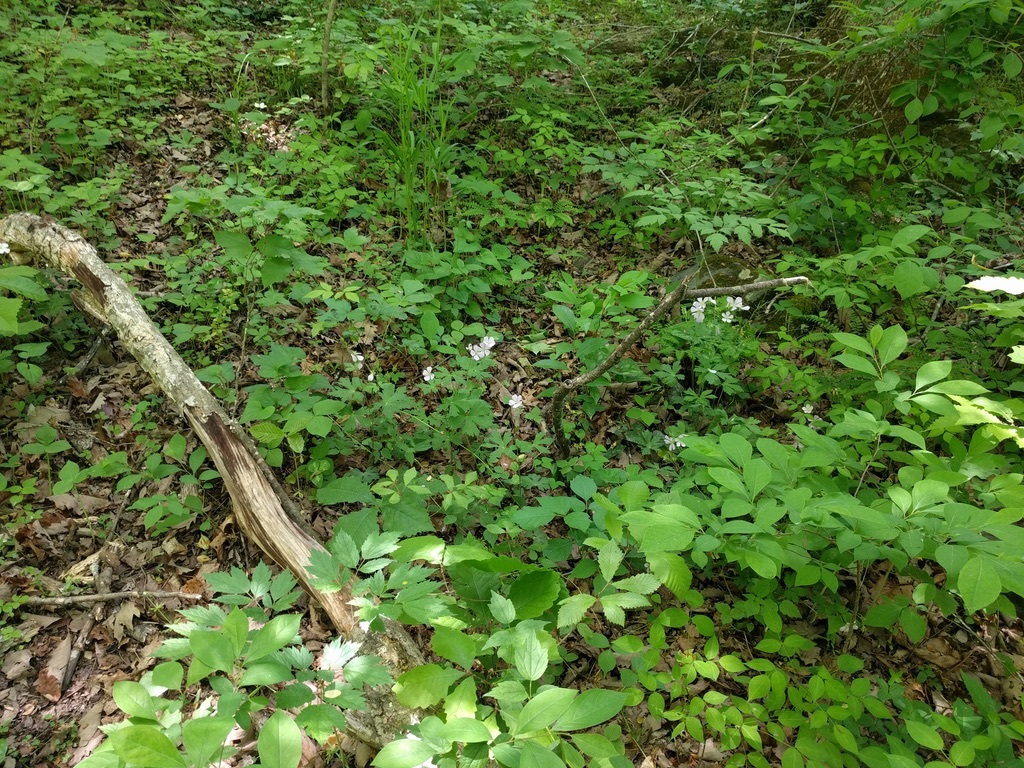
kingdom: Plantae
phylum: Tracheophyta
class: Magnoliopsida
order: Geraniales
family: Geraniaceae
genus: Geranium
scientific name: Geranium maculatum
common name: Spotted geranium
